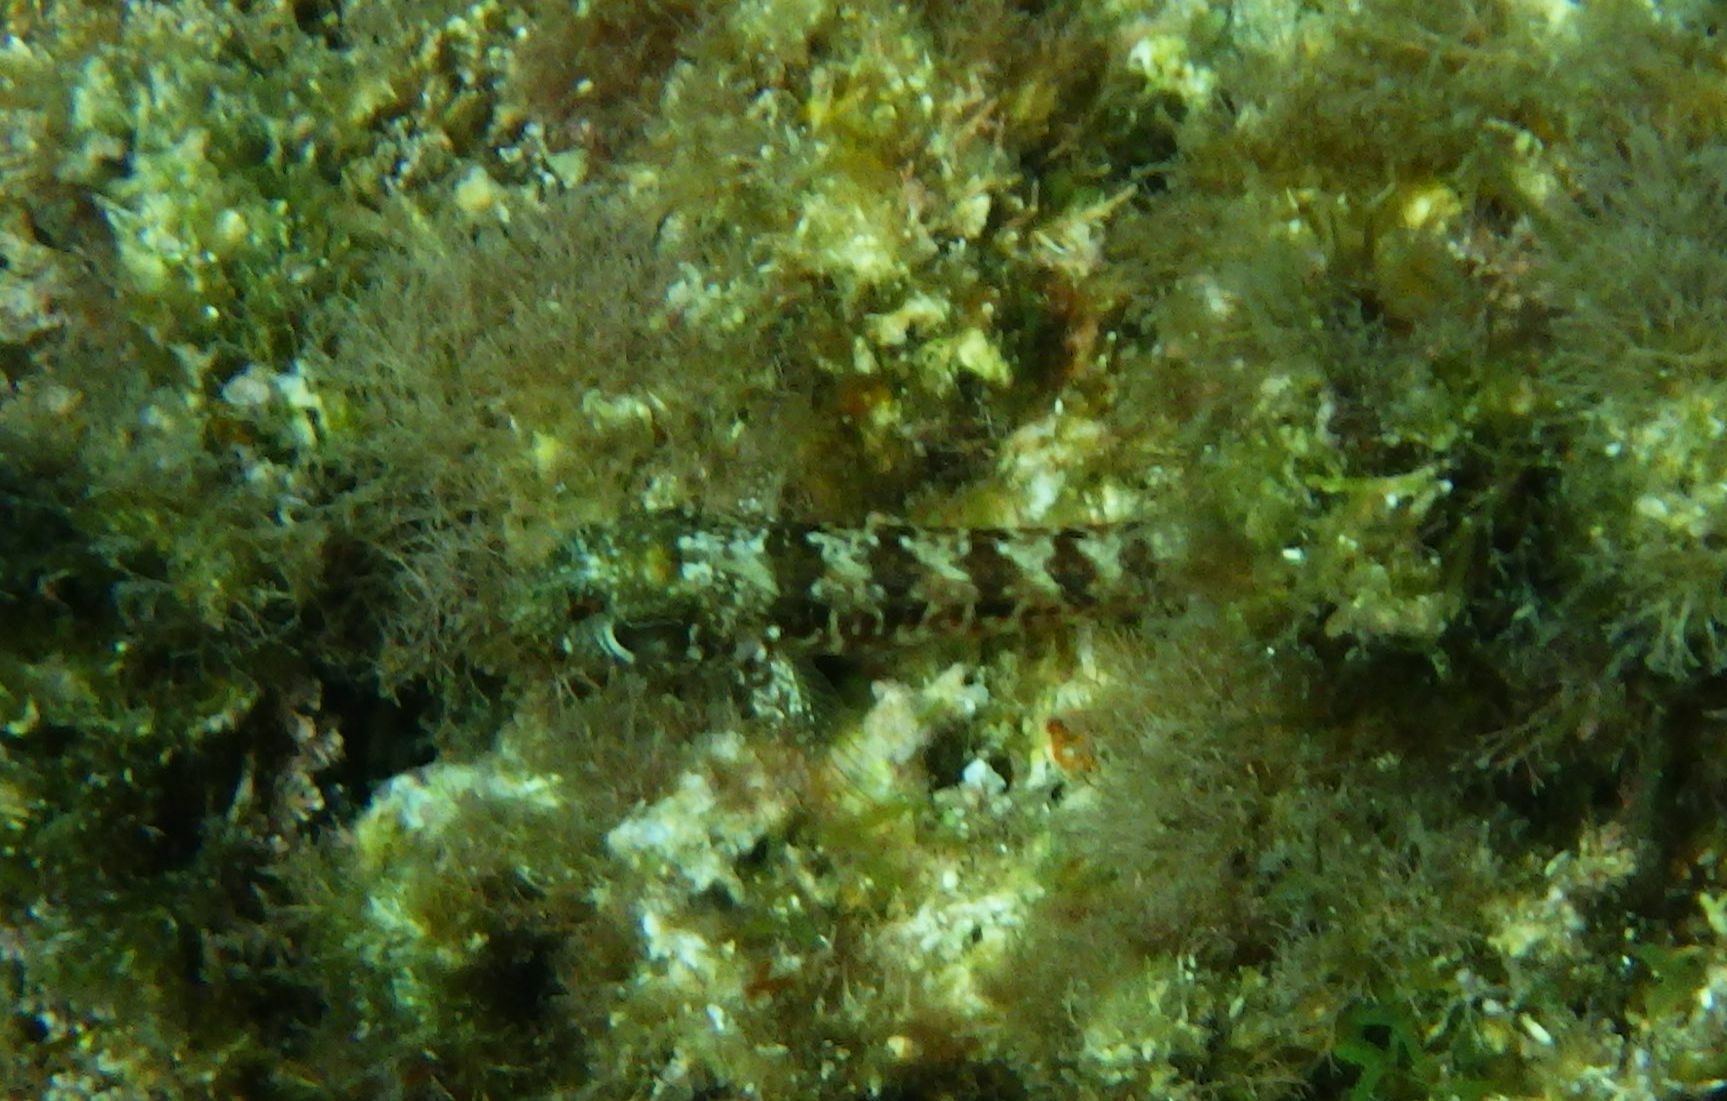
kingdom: Animalia
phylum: Chordata
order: Perciformes
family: Blenniidae
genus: Parablennius
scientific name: Parablennius incognitus
